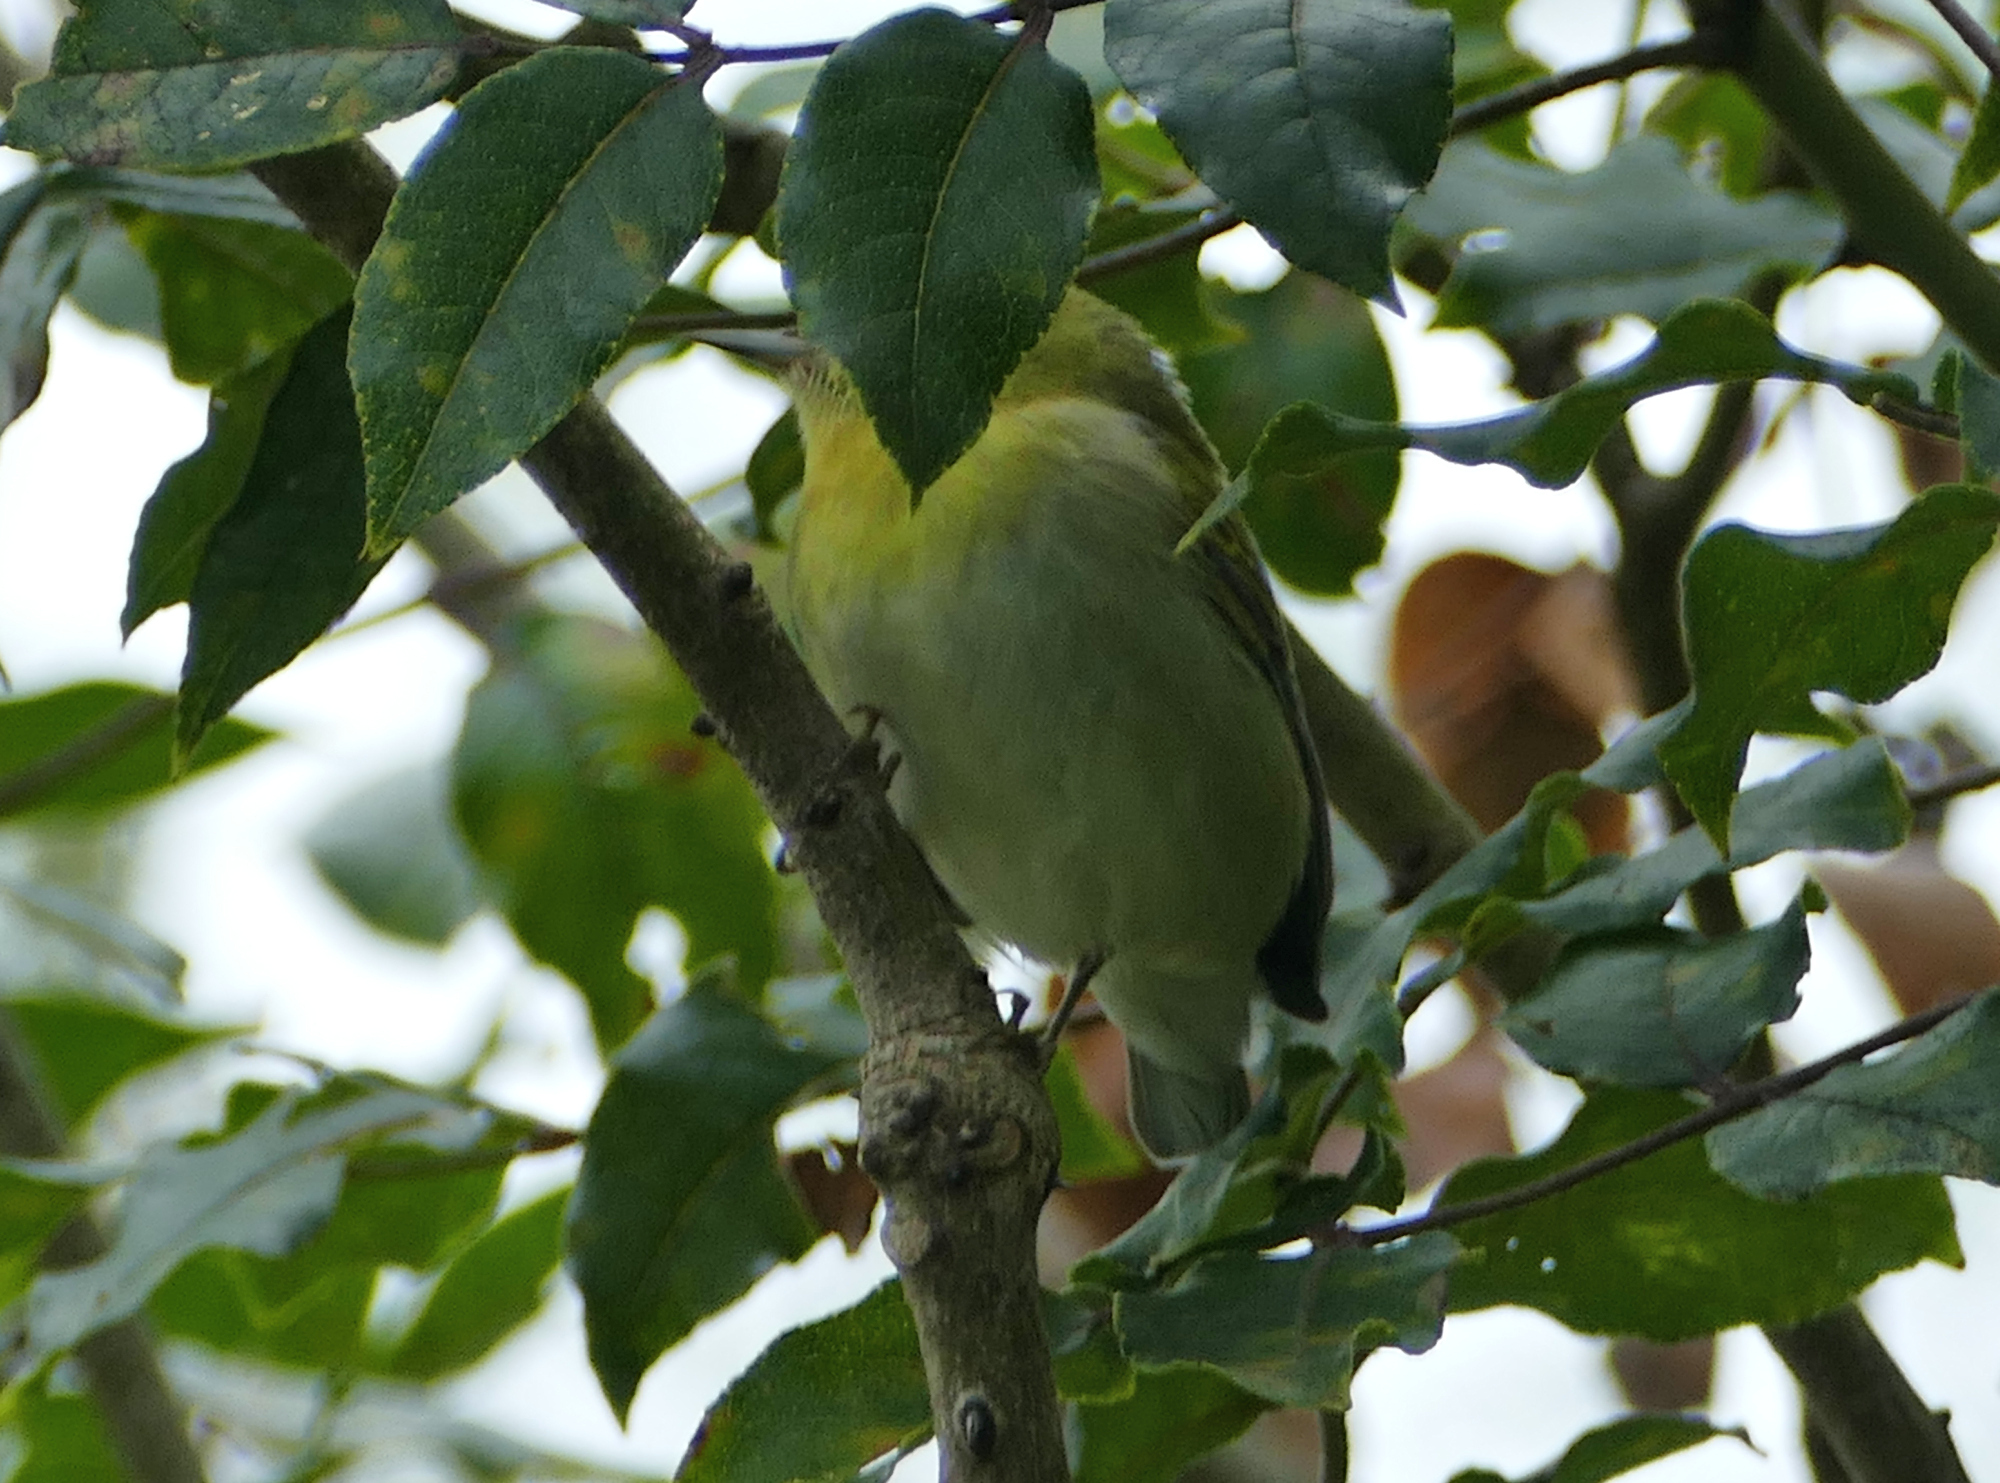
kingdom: Animalia
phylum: Chordata
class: Aves
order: Passeriformes
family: Parulidae
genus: Leiothlypis
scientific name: Leiothlypis peregrina
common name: Tennessee warbler
